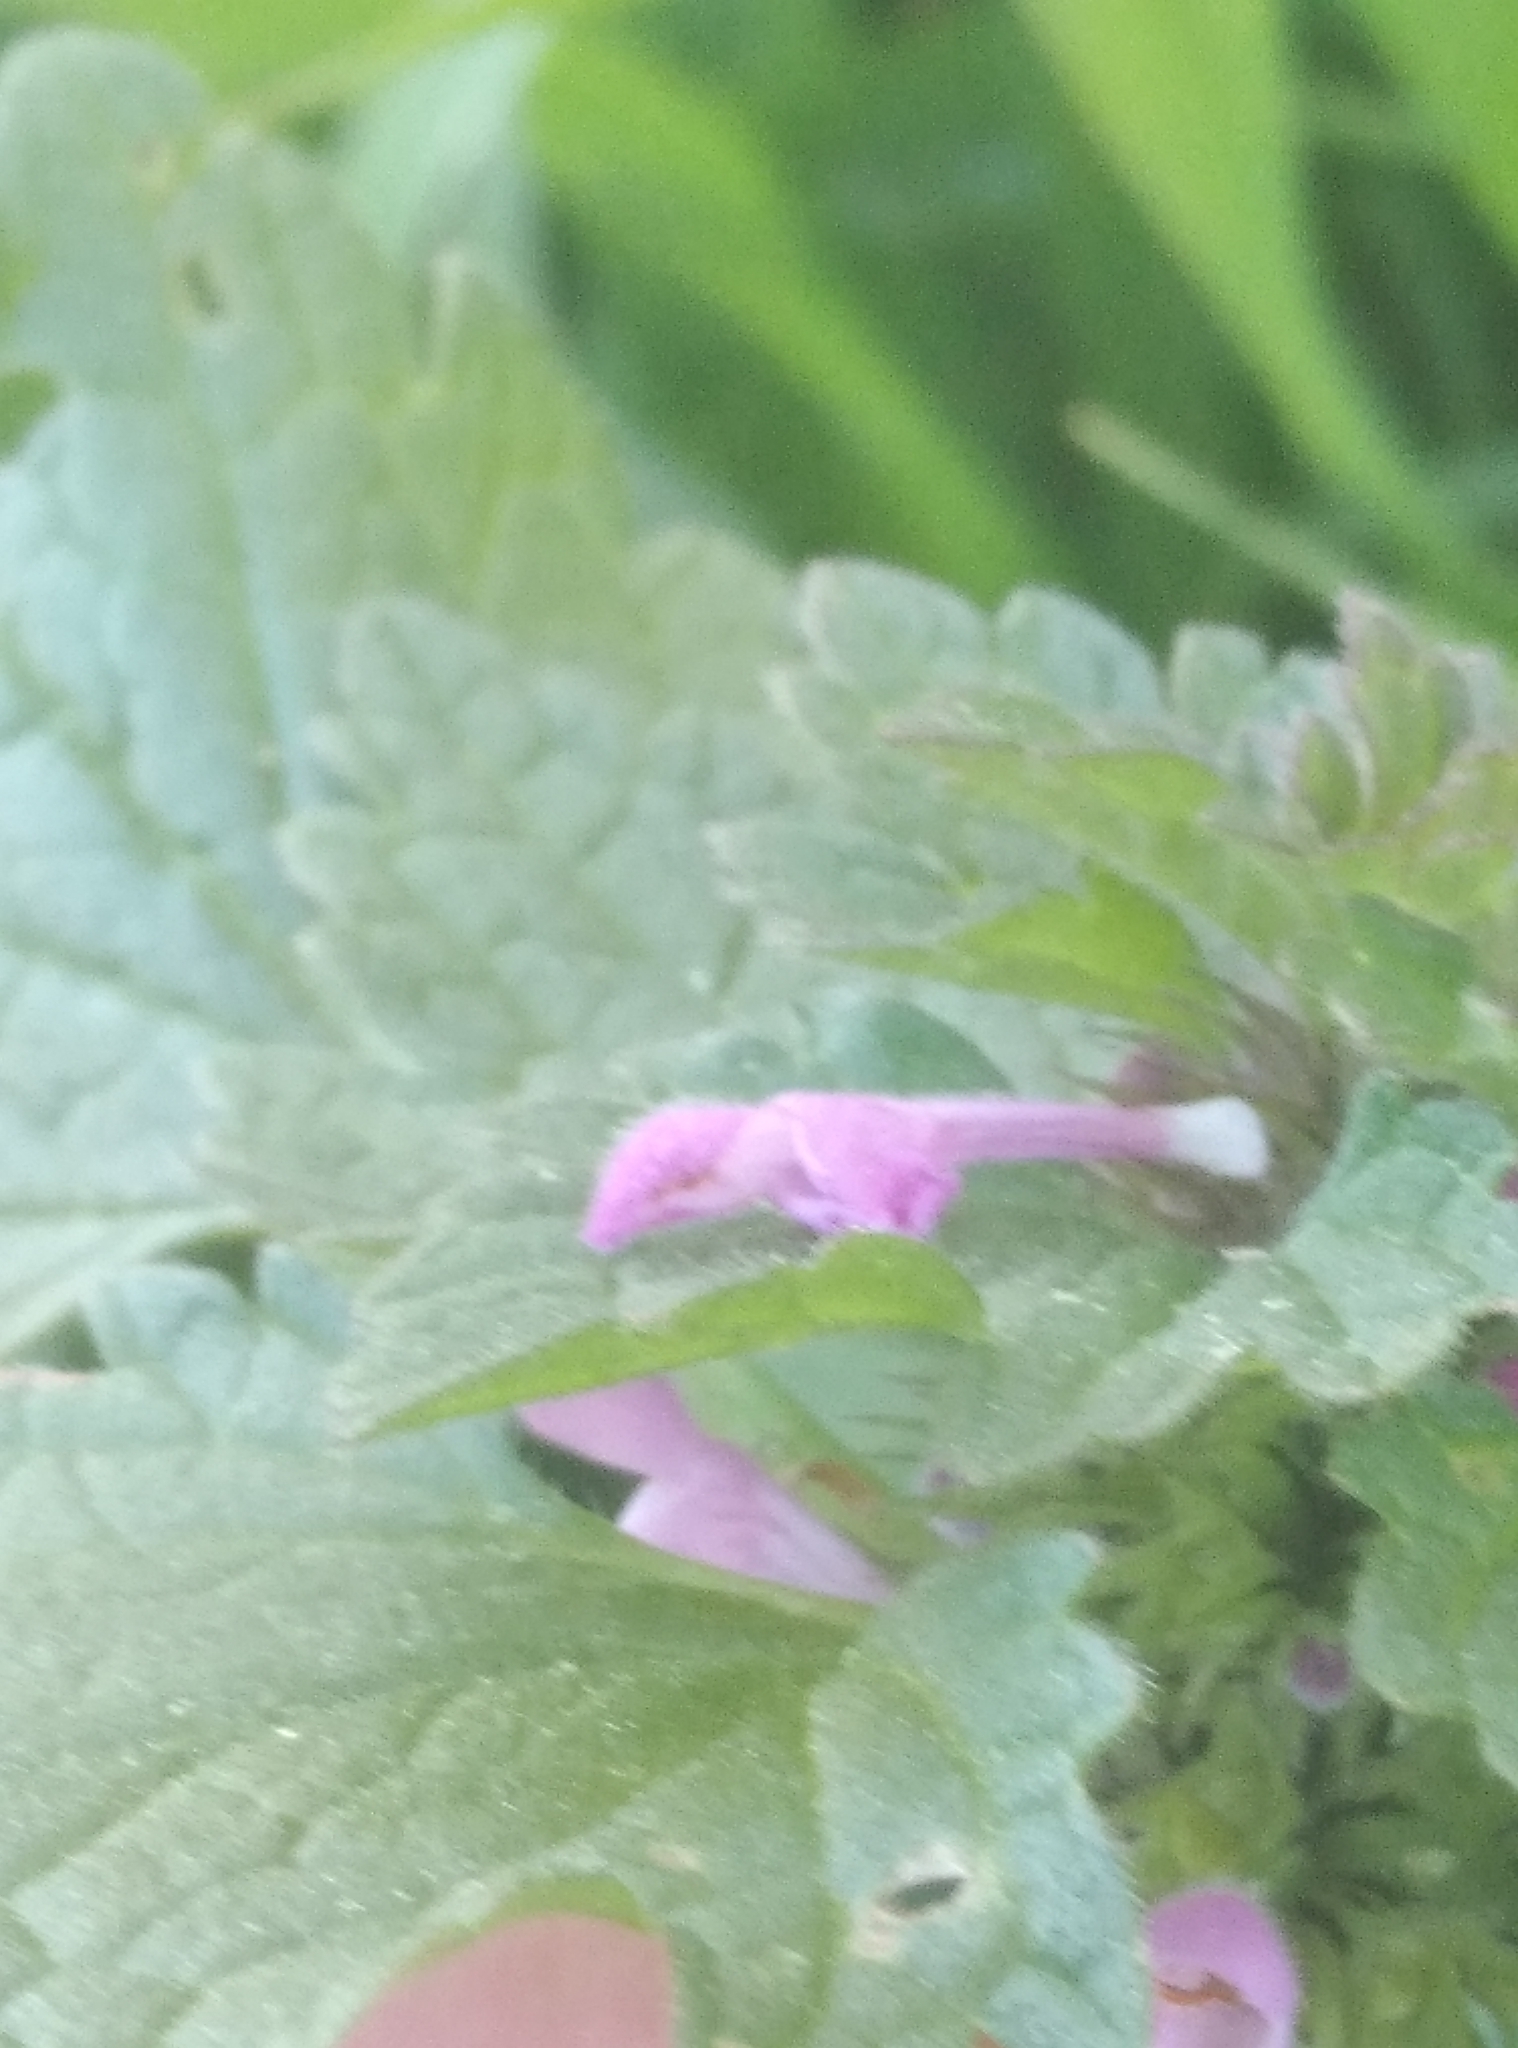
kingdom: Plantae
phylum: Tracheophyta
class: Magnoliopsida
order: Lamiales
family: Lamiaceae
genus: Lamium
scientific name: Lamium hybridum
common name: Cut-leaved dead-nettle
